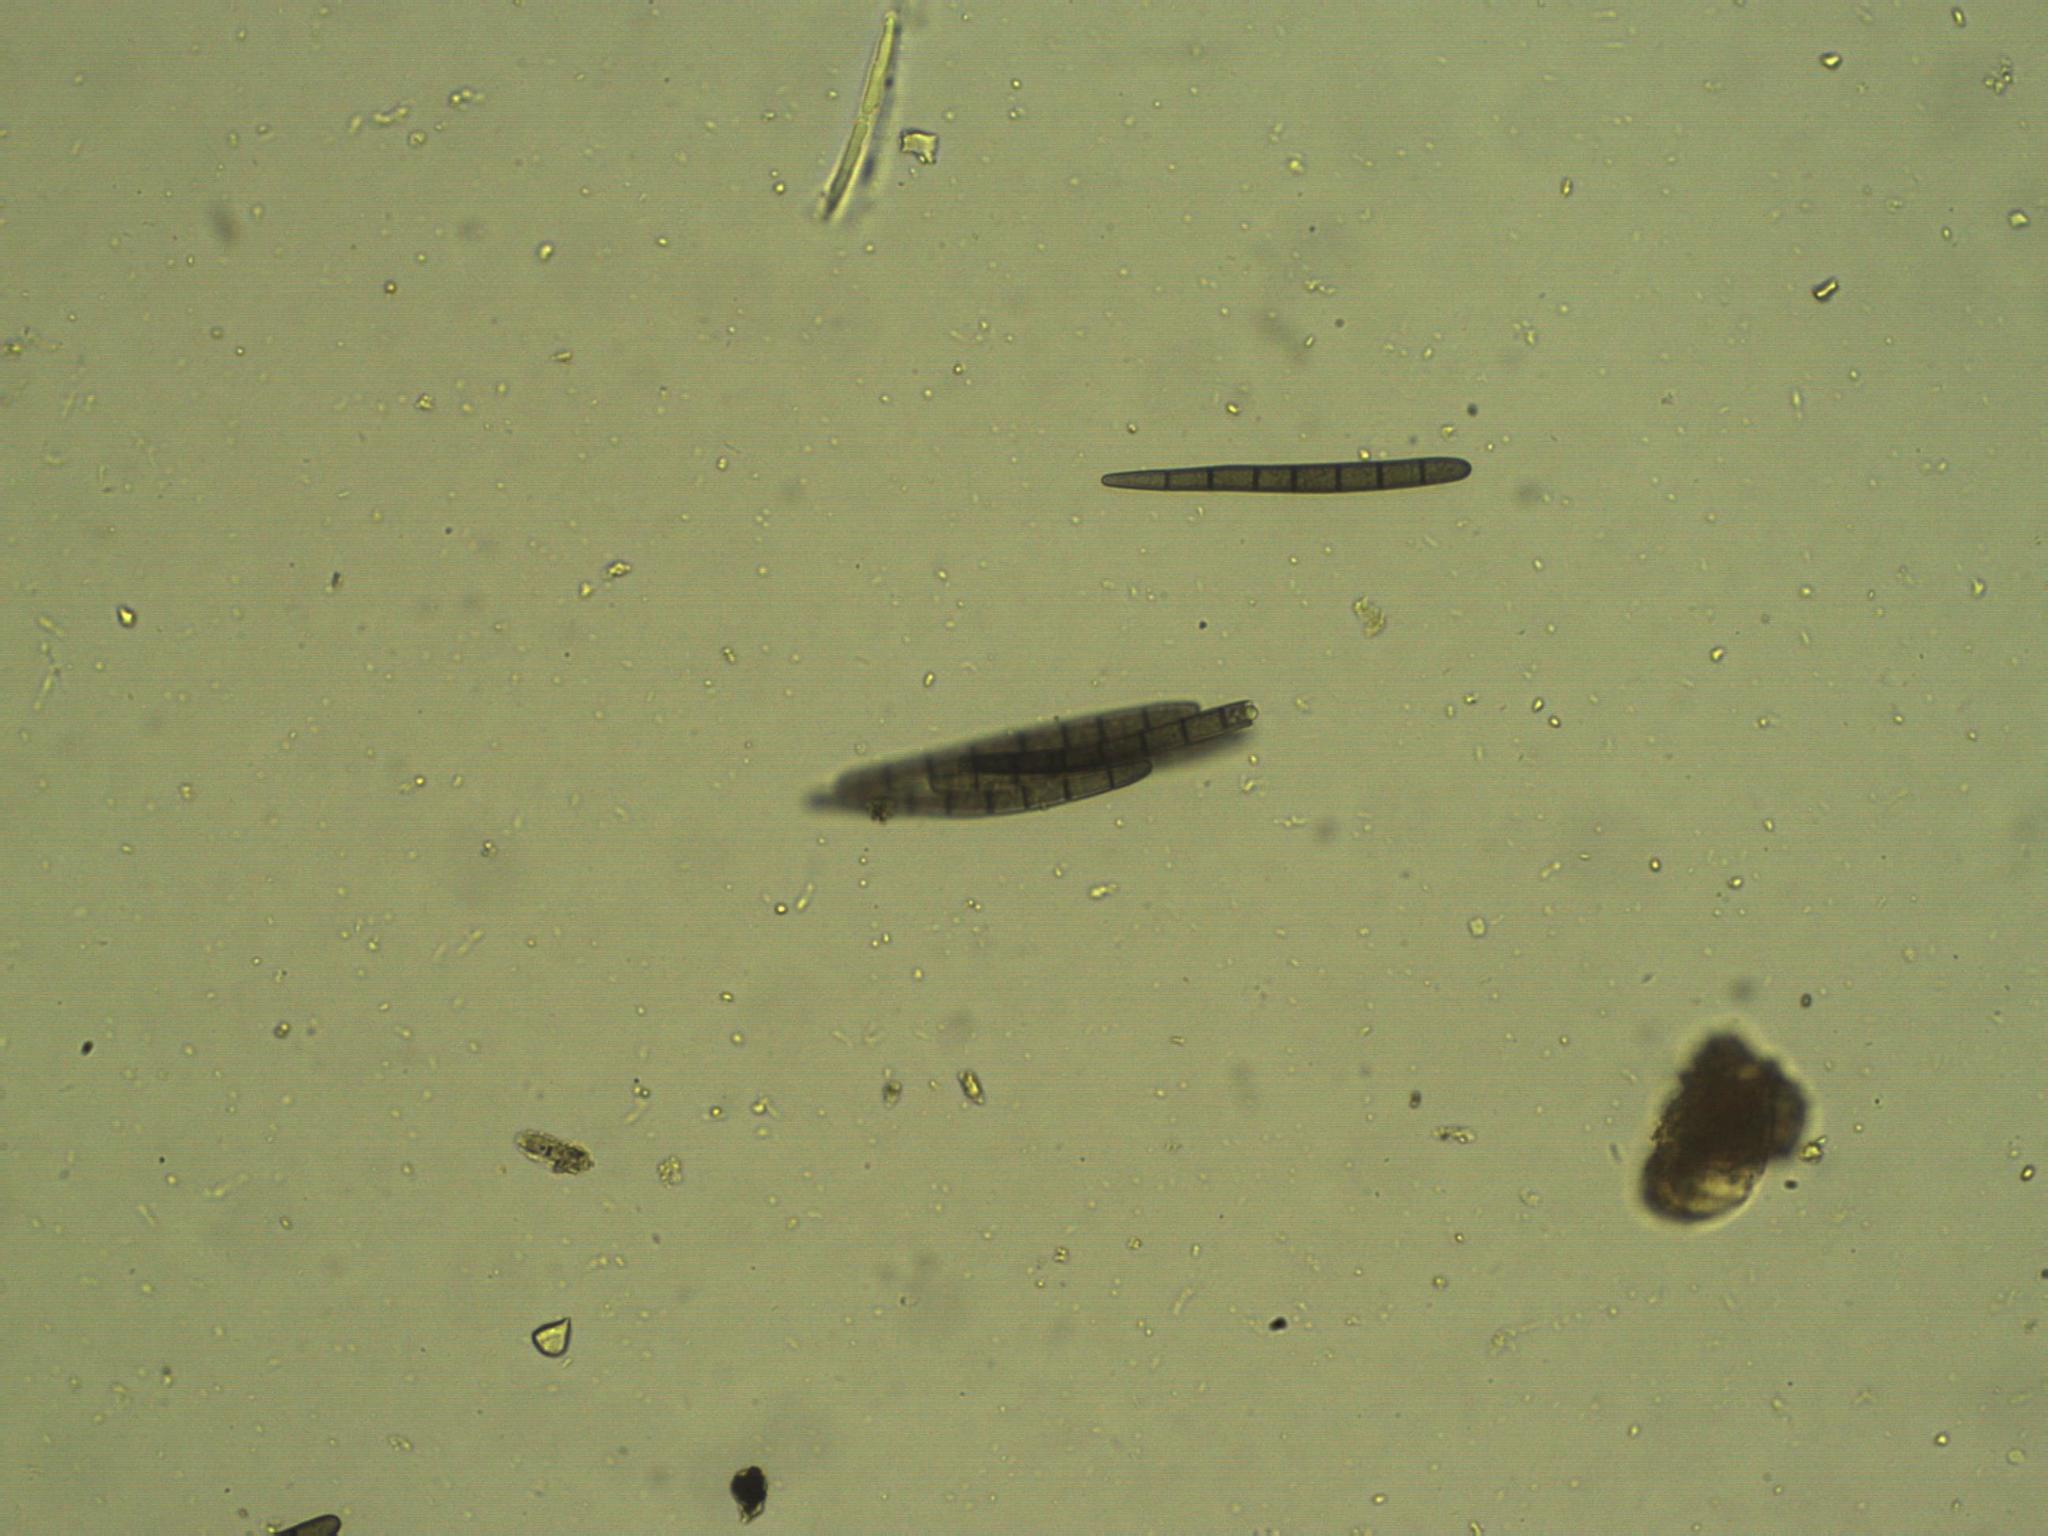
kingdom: Fungi
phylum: Ascomycota
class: Geoglossomycetes
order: Geoglossales
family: Geoglossaceae
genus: Geoglossum
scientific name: Geoglossum brunneipes
